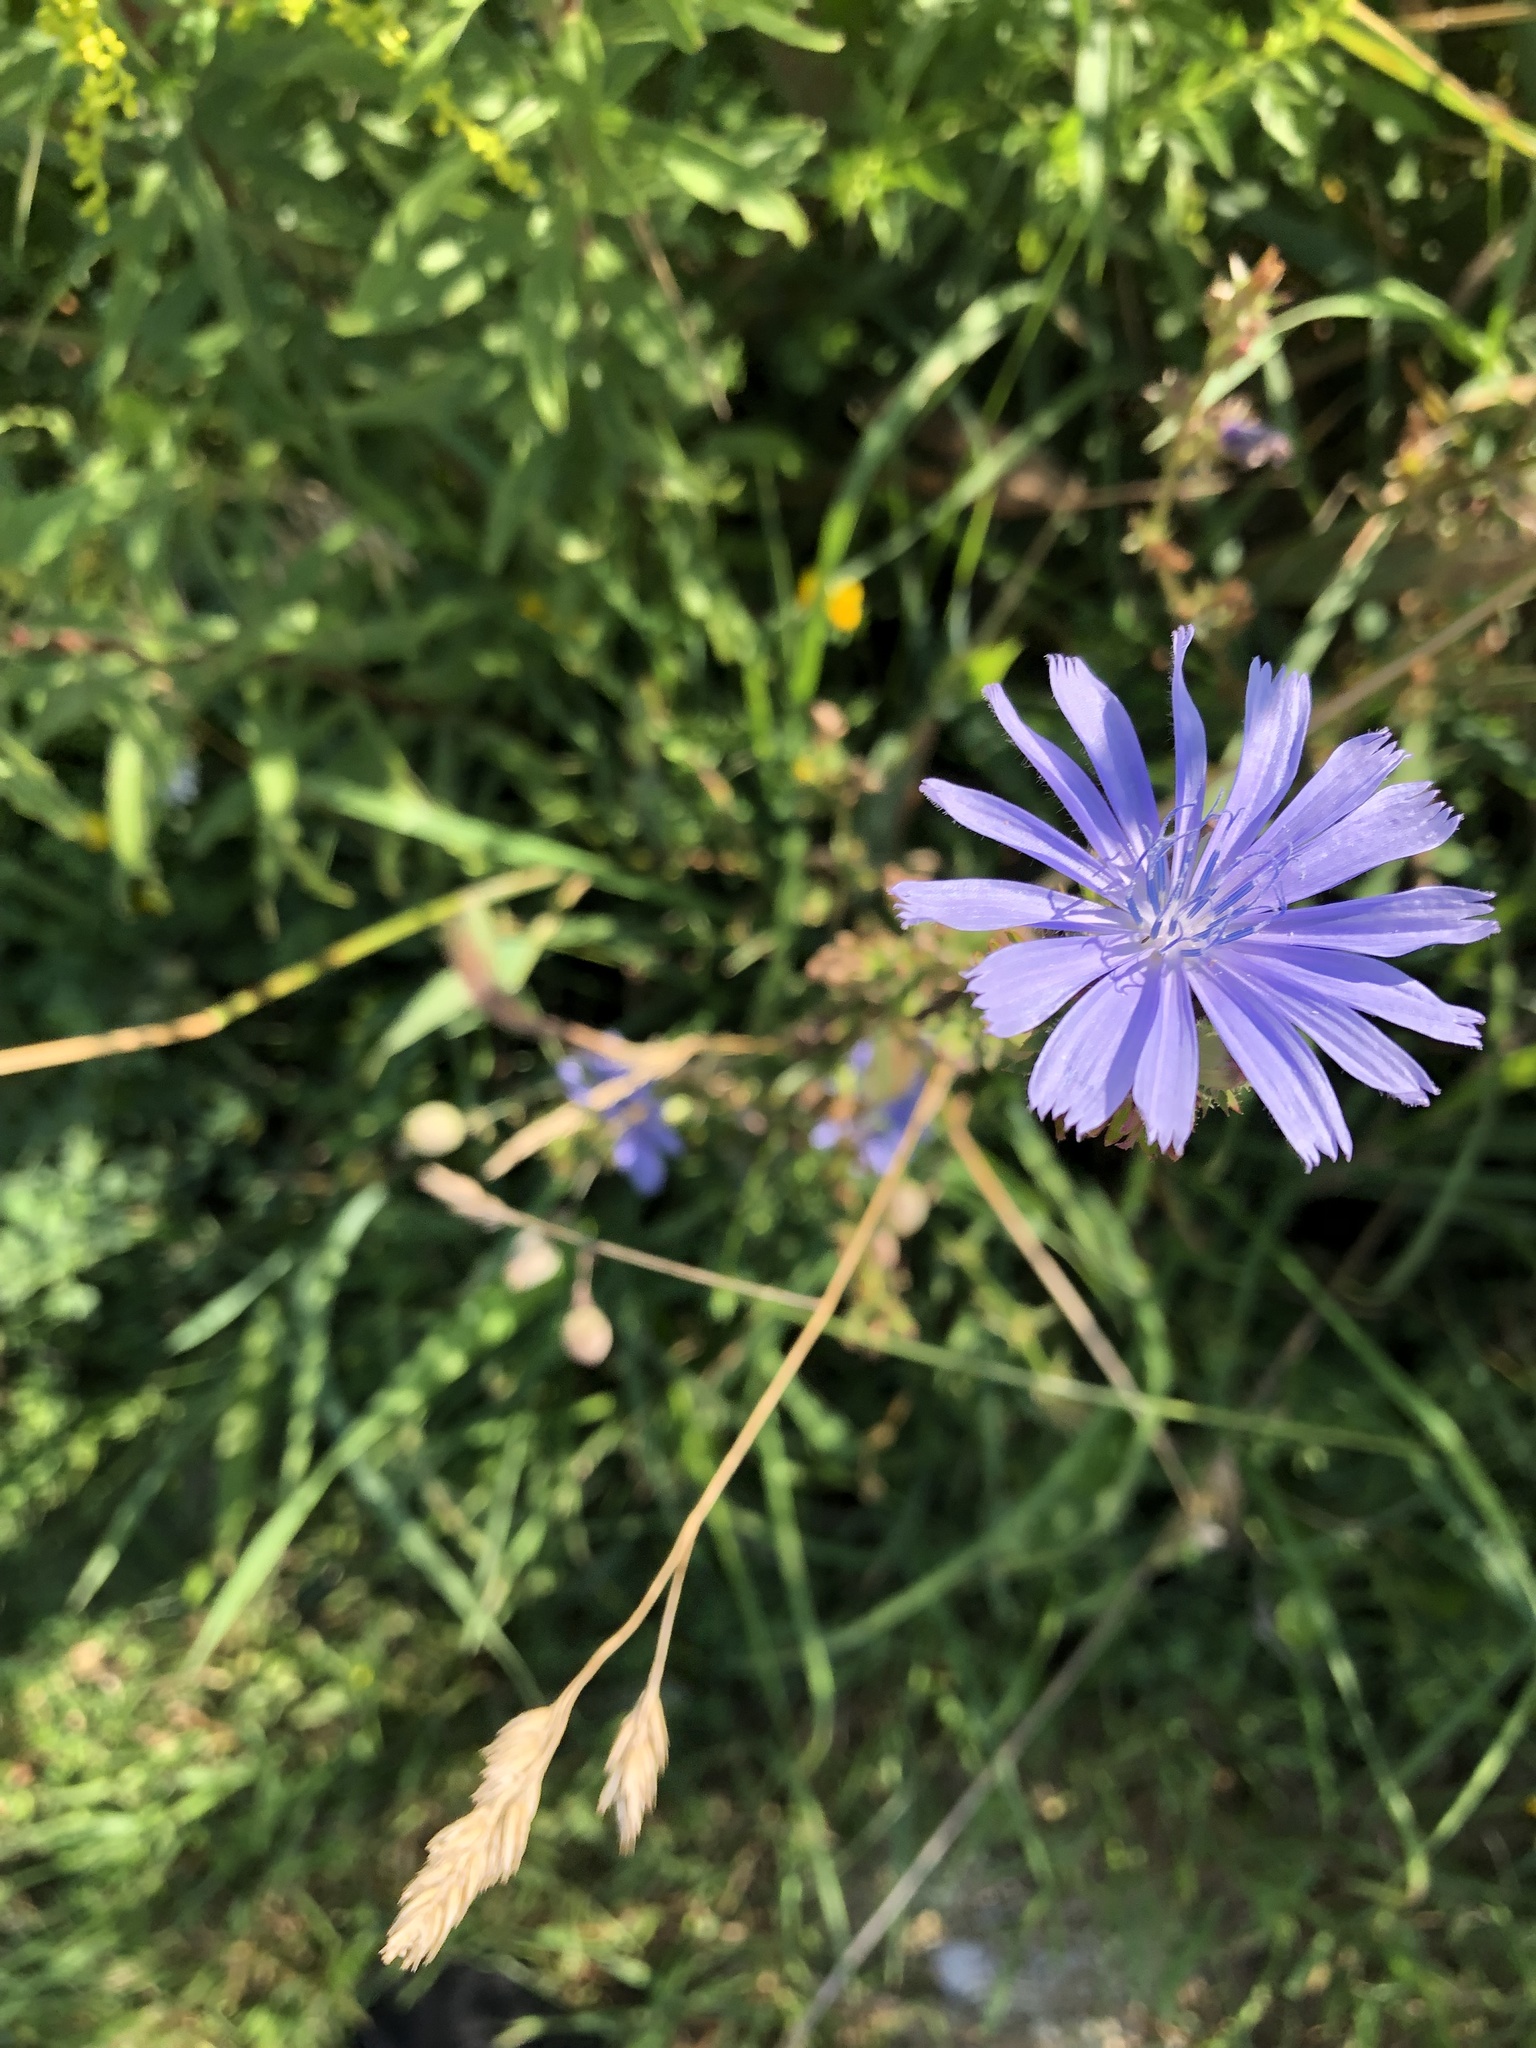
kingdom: Plantae
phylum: Tracheophyta
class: Magnoliopsida
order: Asterales
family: Asteraceae
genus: Cichorium
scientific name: Cichorium intybus
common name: Chicory
